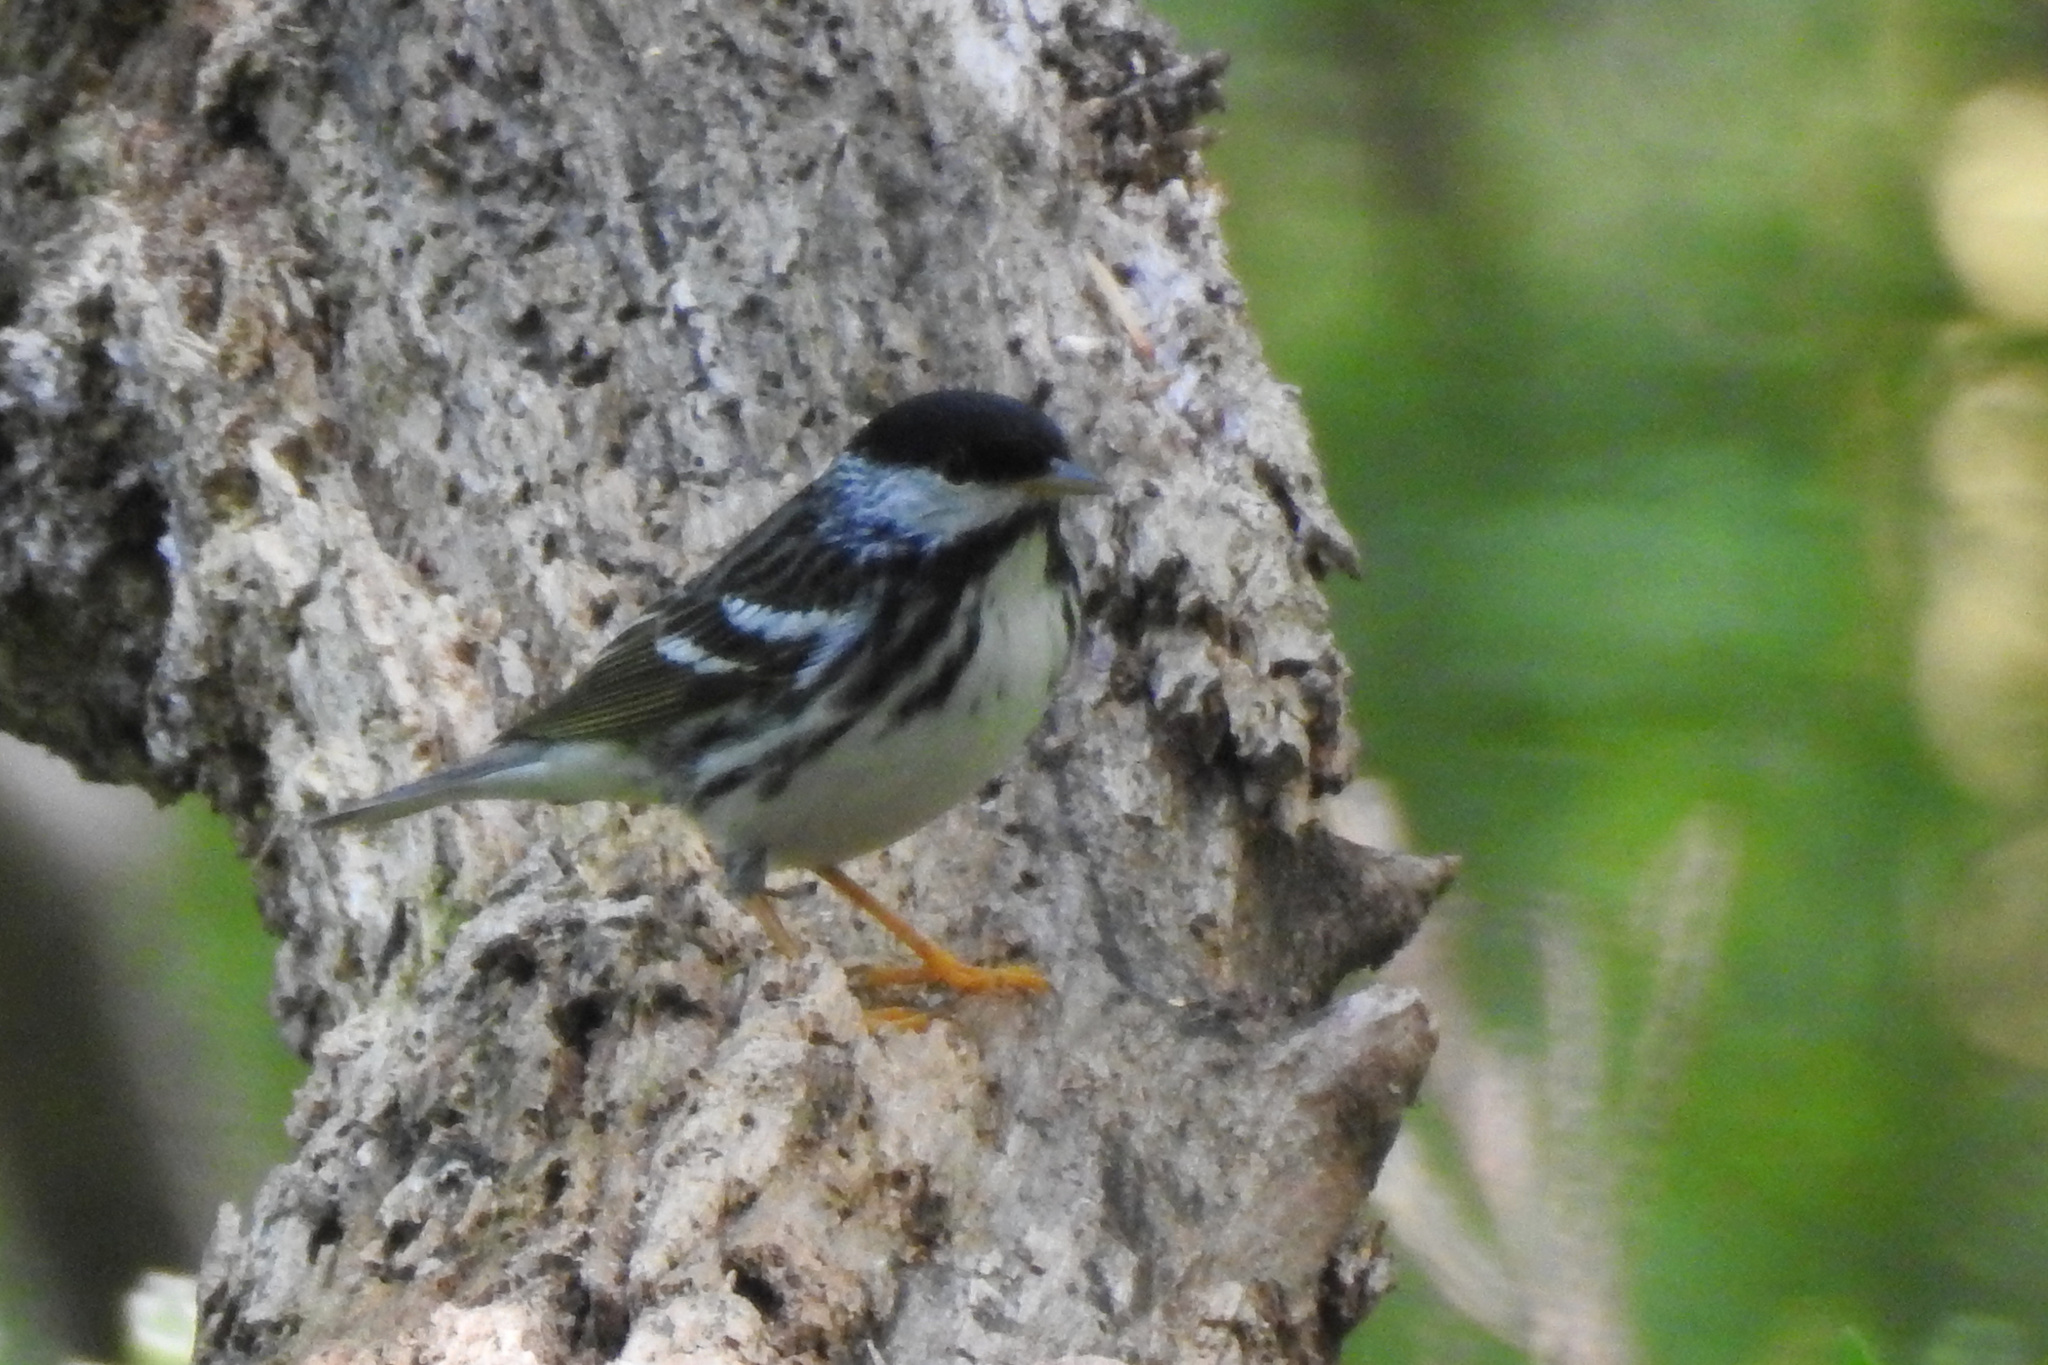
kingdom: Animalia
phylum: Chordata
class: Aves
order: Passeriformes
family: Parulidae
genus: Setophaga
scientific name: Setophaga striata
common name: Blackpoll warbler
